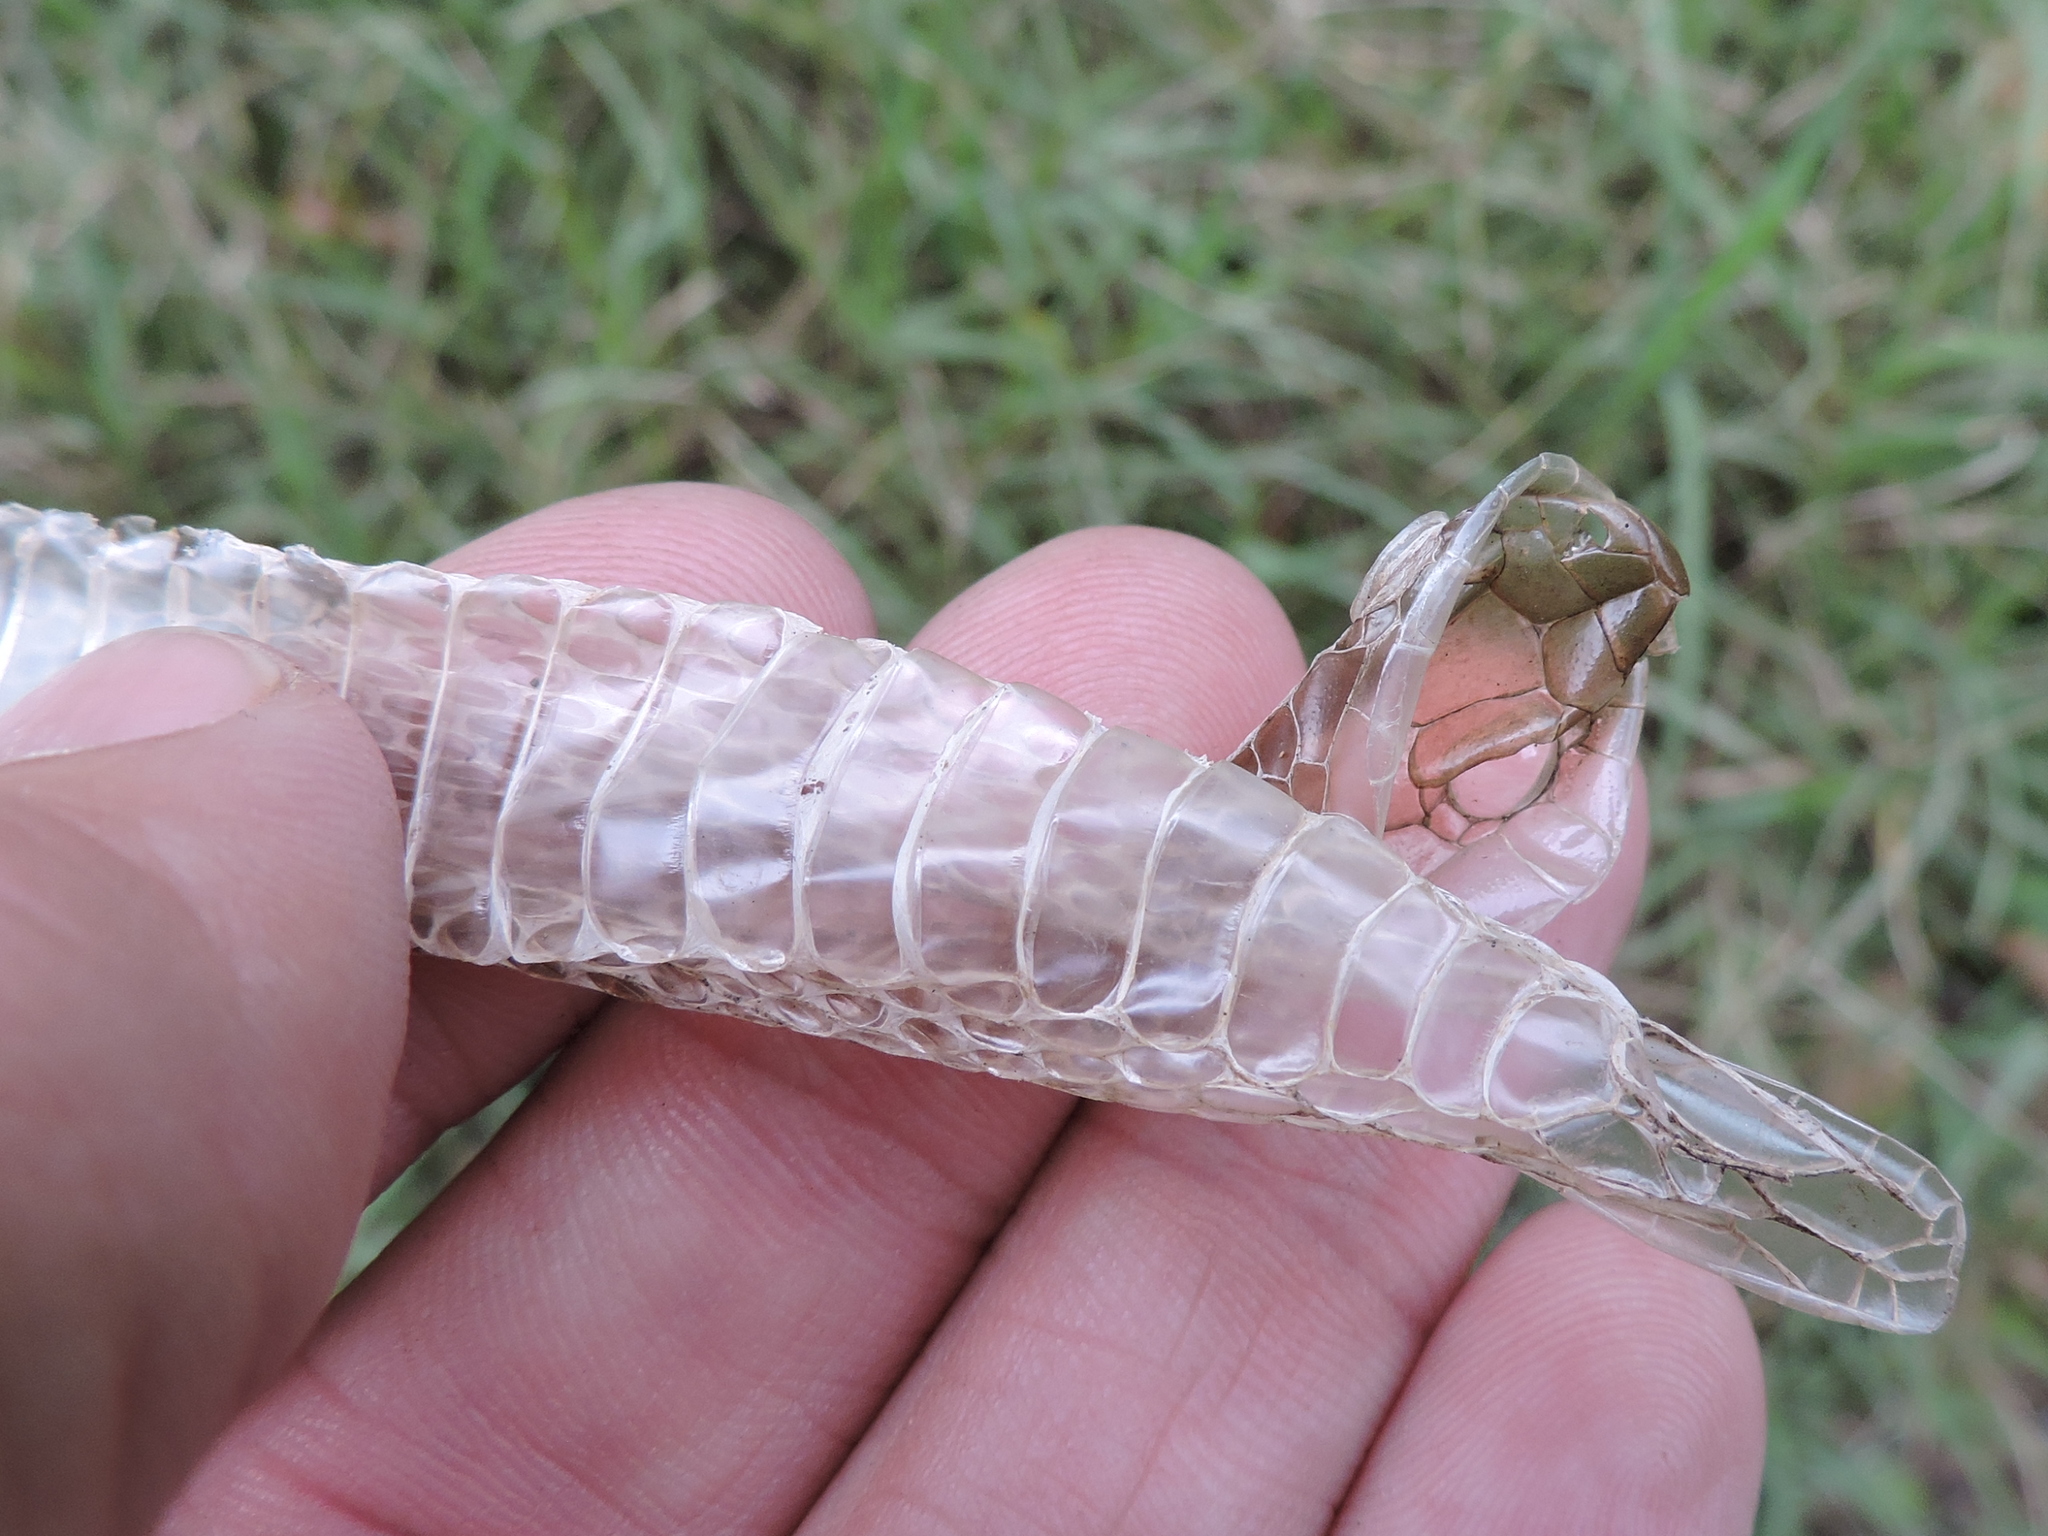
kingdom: Animalia
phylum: Chordata
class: Squamata
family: Colubridae
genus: Thamnophis
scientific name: Thamnophis
